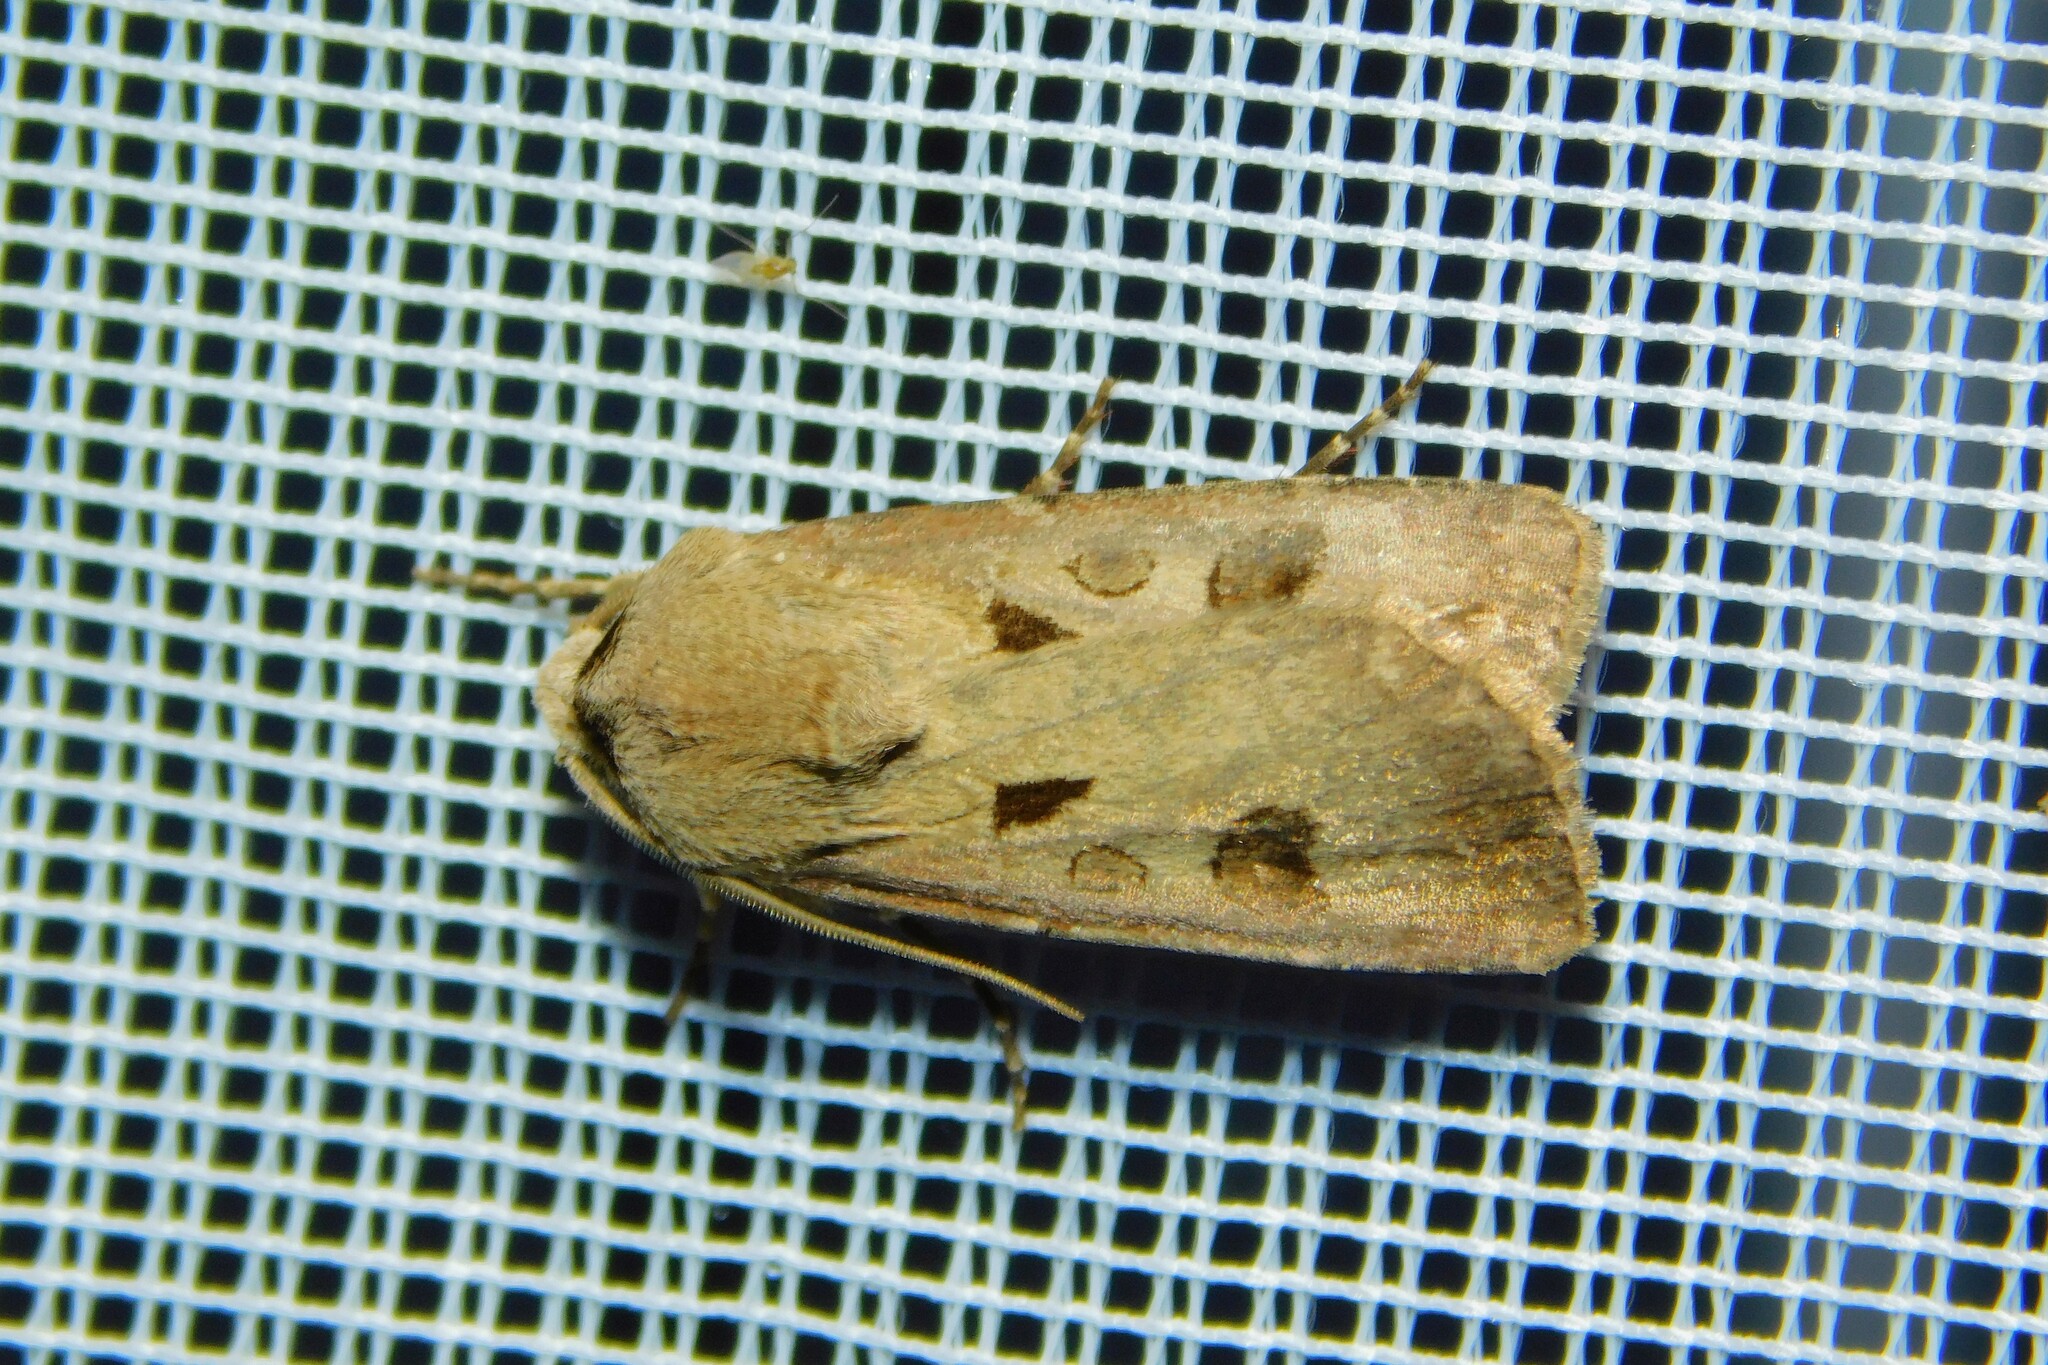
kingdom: Animalia
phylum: Arthropoda
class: Insecta
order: Lepidoptera
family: Noctuidae
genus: Agrotis
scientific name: Agrotis exclamationis
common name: Heart and dart
